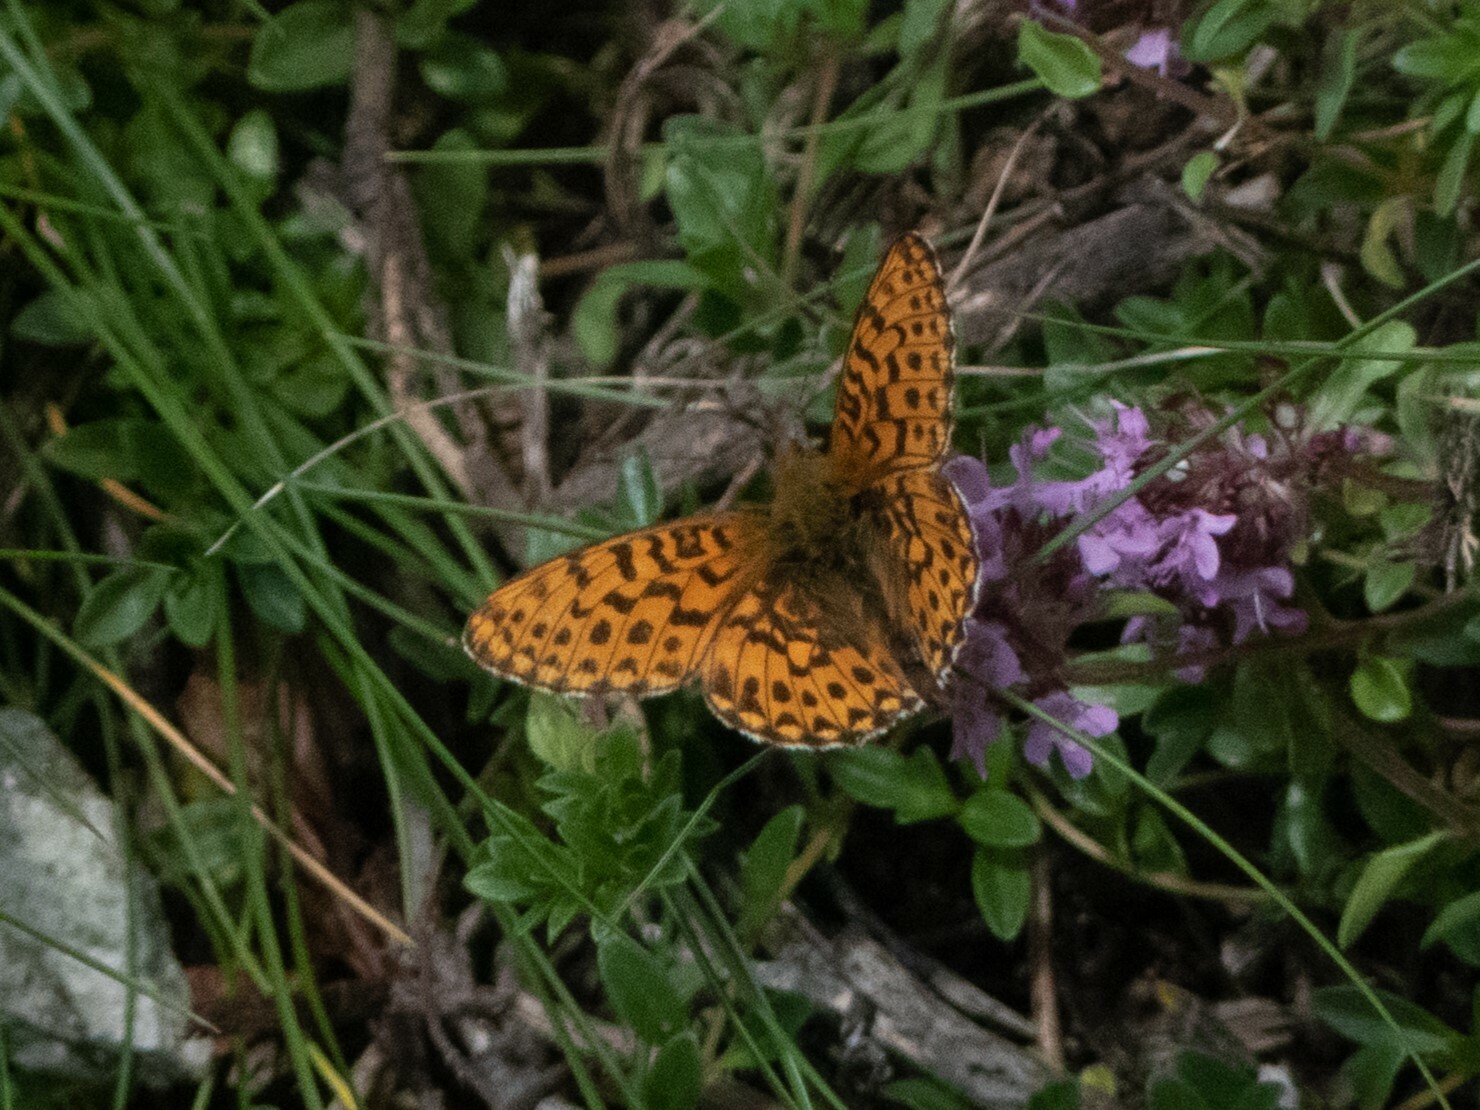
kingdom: Animalia
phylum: Arthropoda
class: Insecta
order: Lepidoptera
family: Nymphalidae
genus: Clossiana
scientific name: Clossiana euphrosyne
